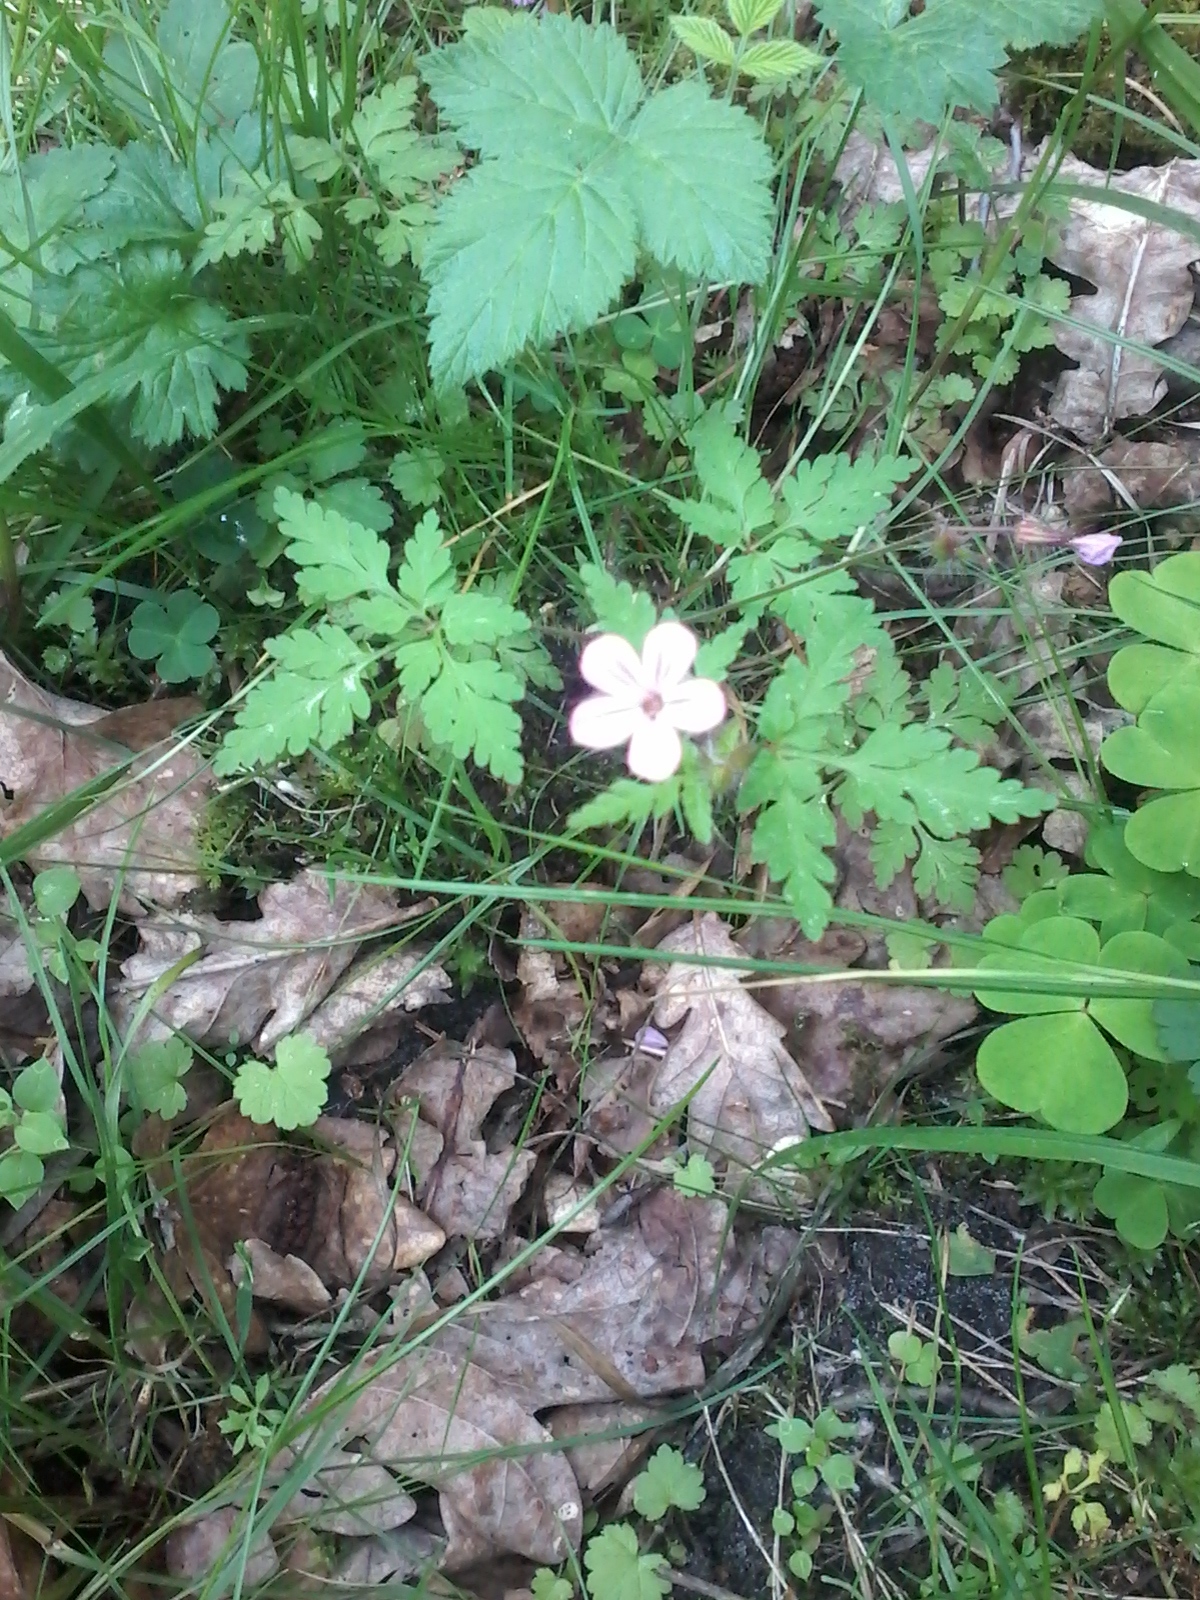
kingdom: Plantae
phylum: Tracheophyta
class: Magnoliopsida
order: Geraniales
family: Geraniaceae
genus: Geranium
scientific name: Geranium robertianum
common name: Herb-robert
